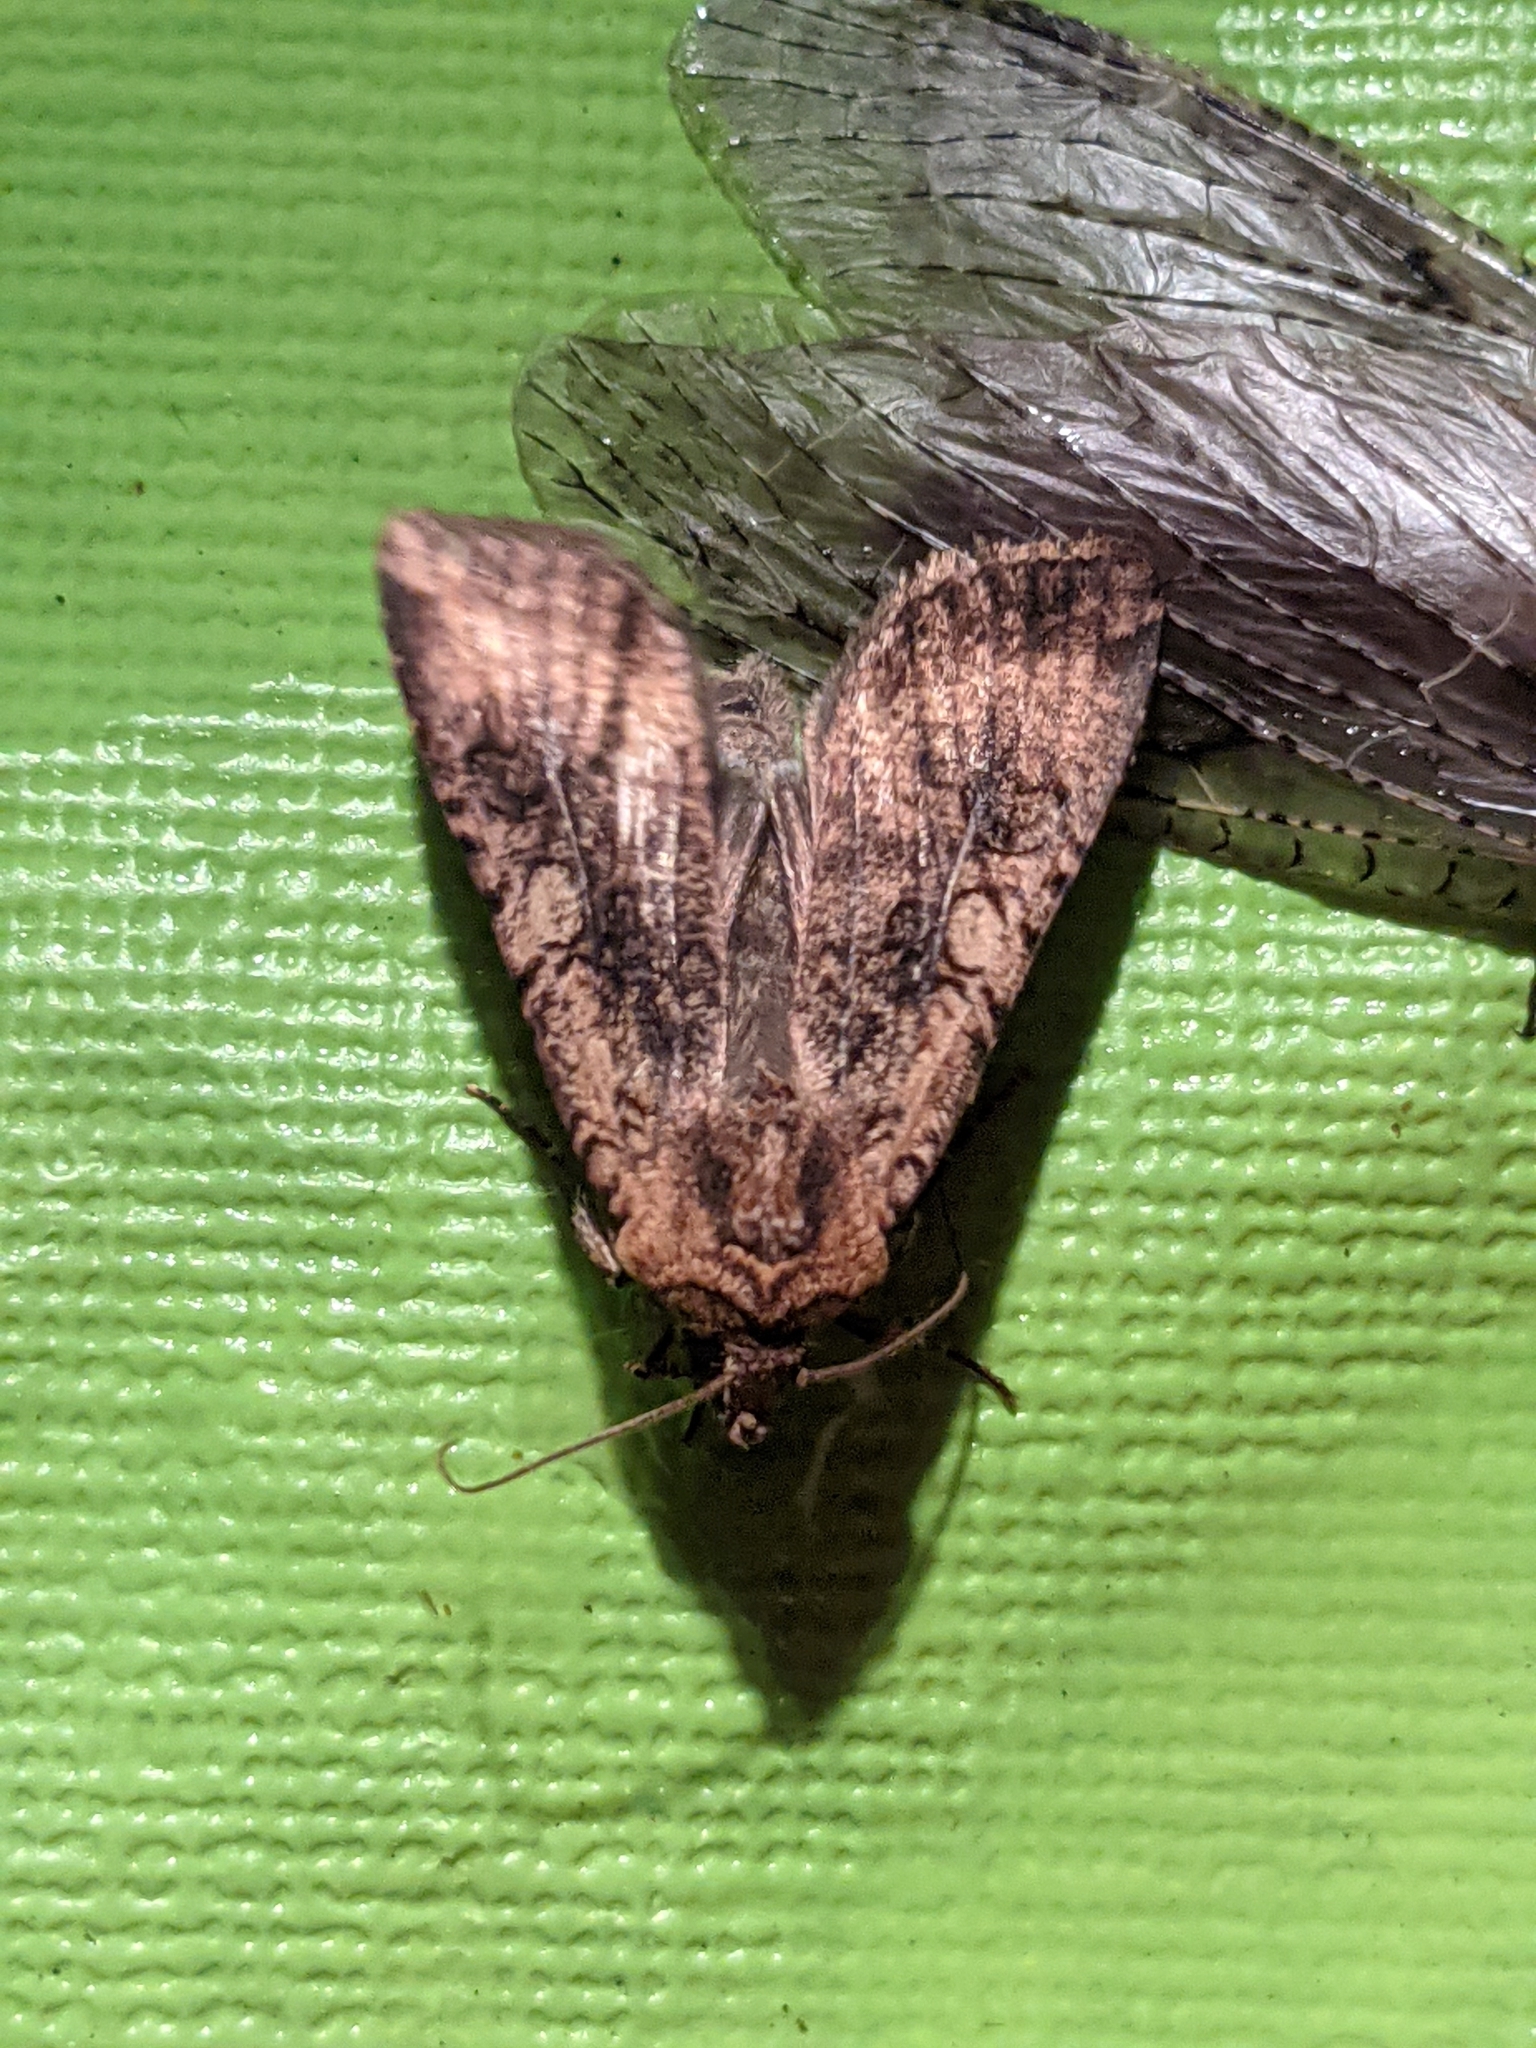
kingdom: Animalia
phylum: Arthropoda
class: Insecta
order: Lepidoptera
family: Noctuidae
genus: Peridroma
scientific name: Peridroma saucia
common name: Pearly underwing
